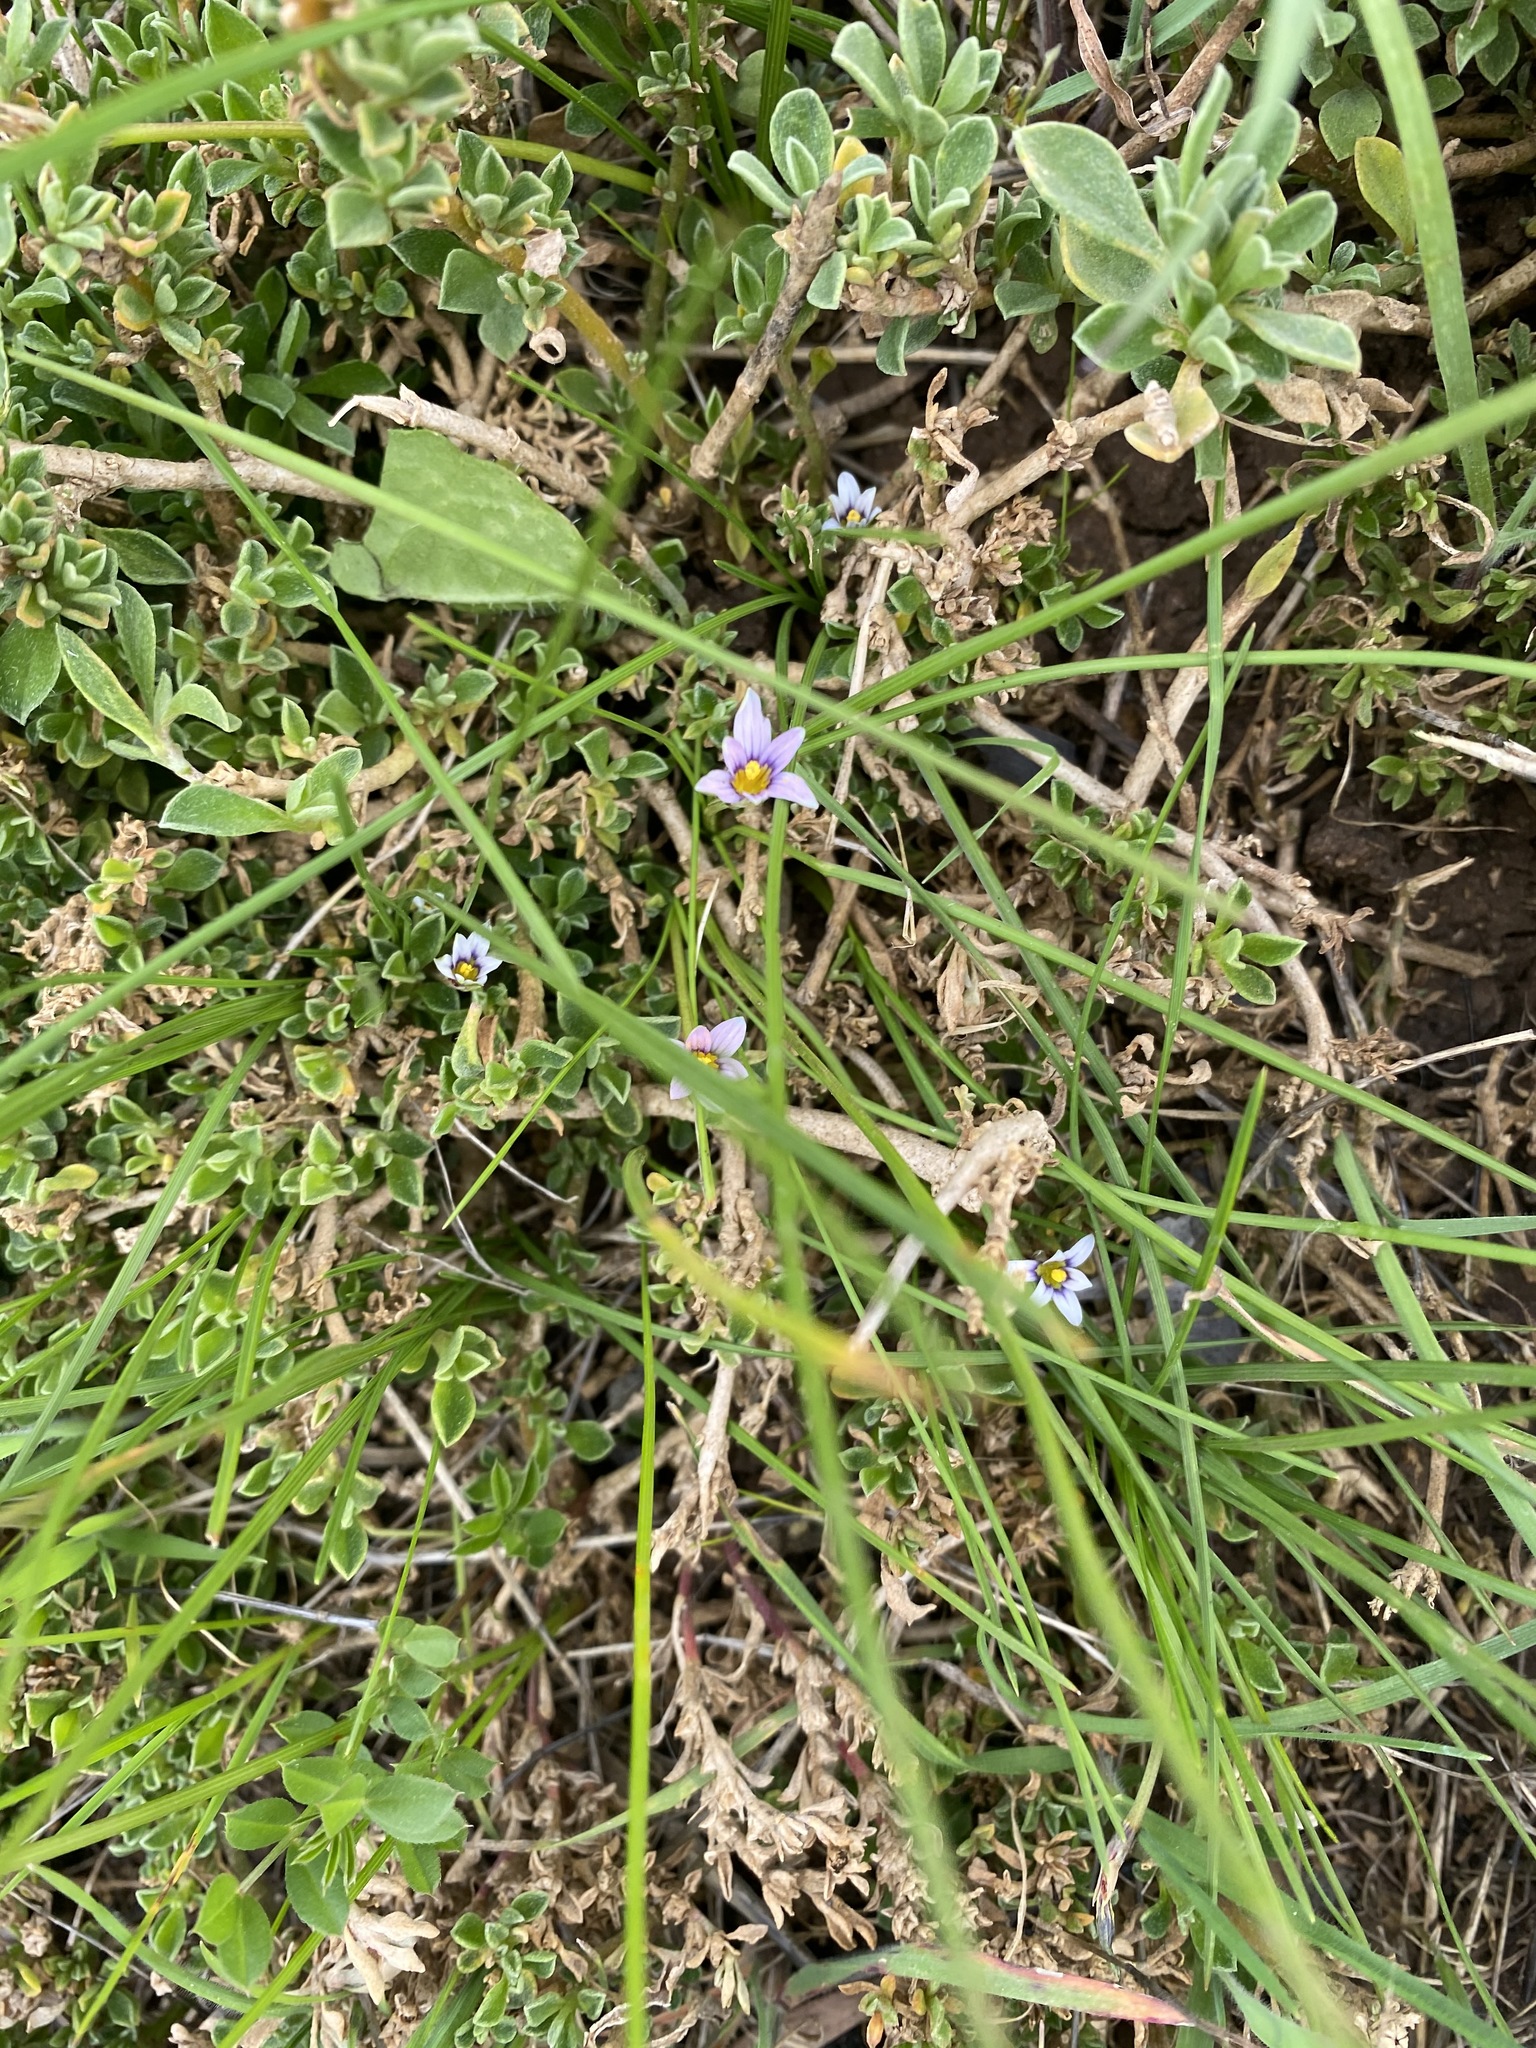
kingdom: Plantae
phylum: Tracheophyta
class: Liliopsida
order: Asparagales
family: Iridaceae
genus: Romulea
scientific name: Romulea minutiflora
